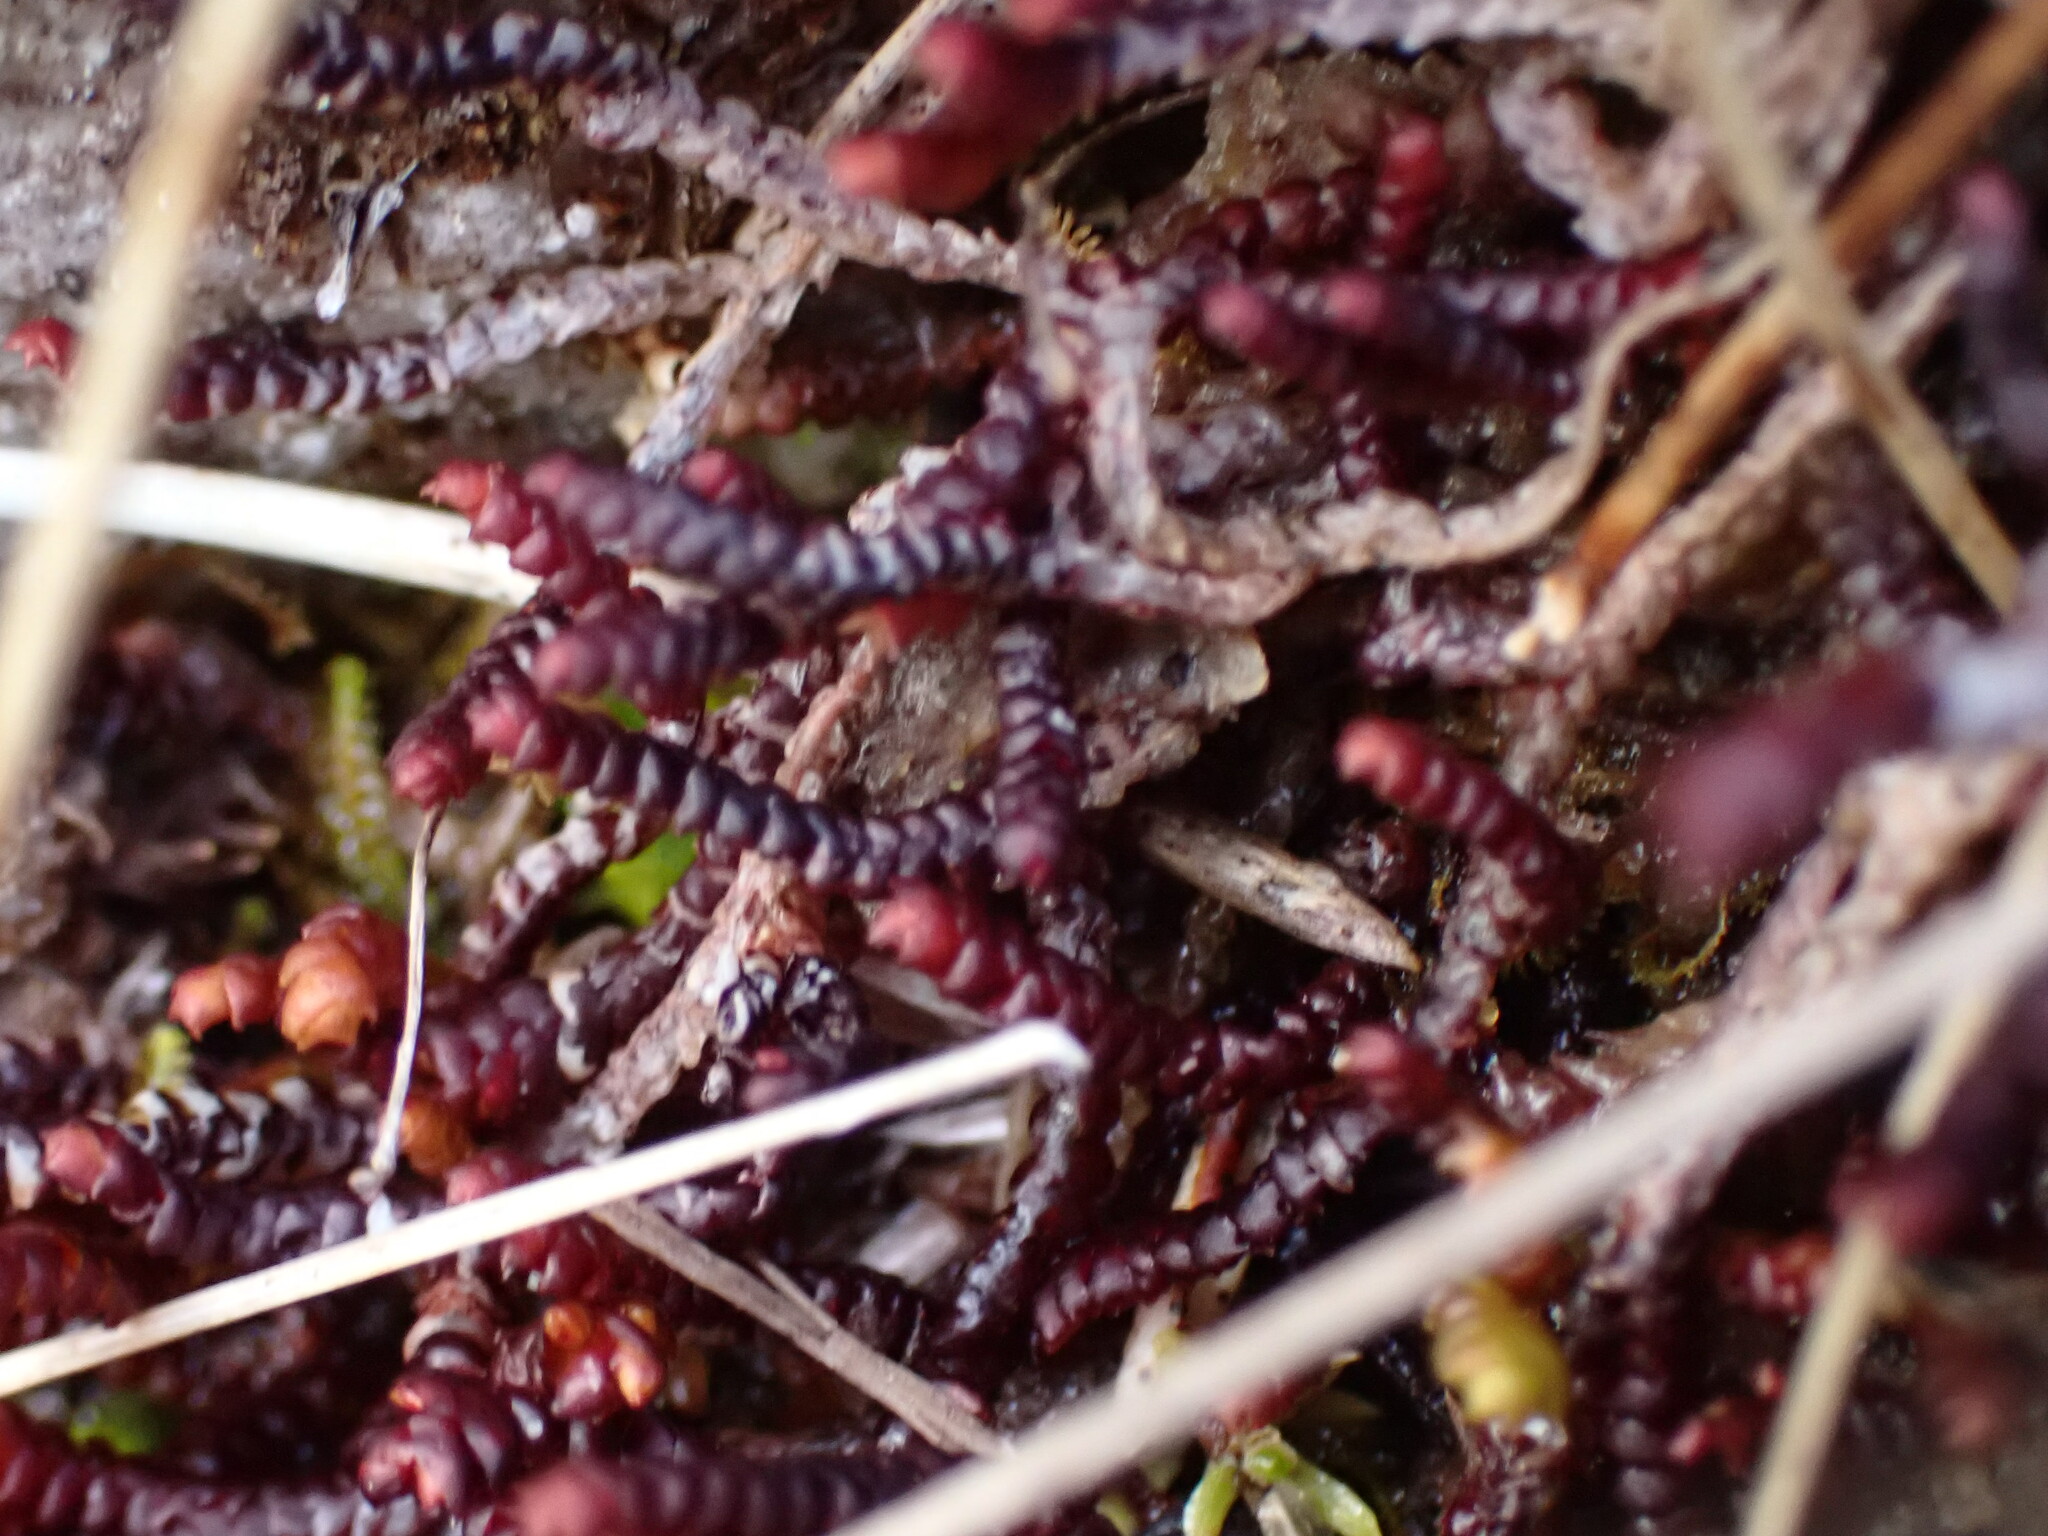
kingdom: Plantae
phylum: Marchantiophyta
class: Jungermanniopsida
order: Pleuroziales
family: Pleuroziaceae
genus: Pleurozia
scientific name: Pleurozia purpurea
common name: Purple spoonwort
